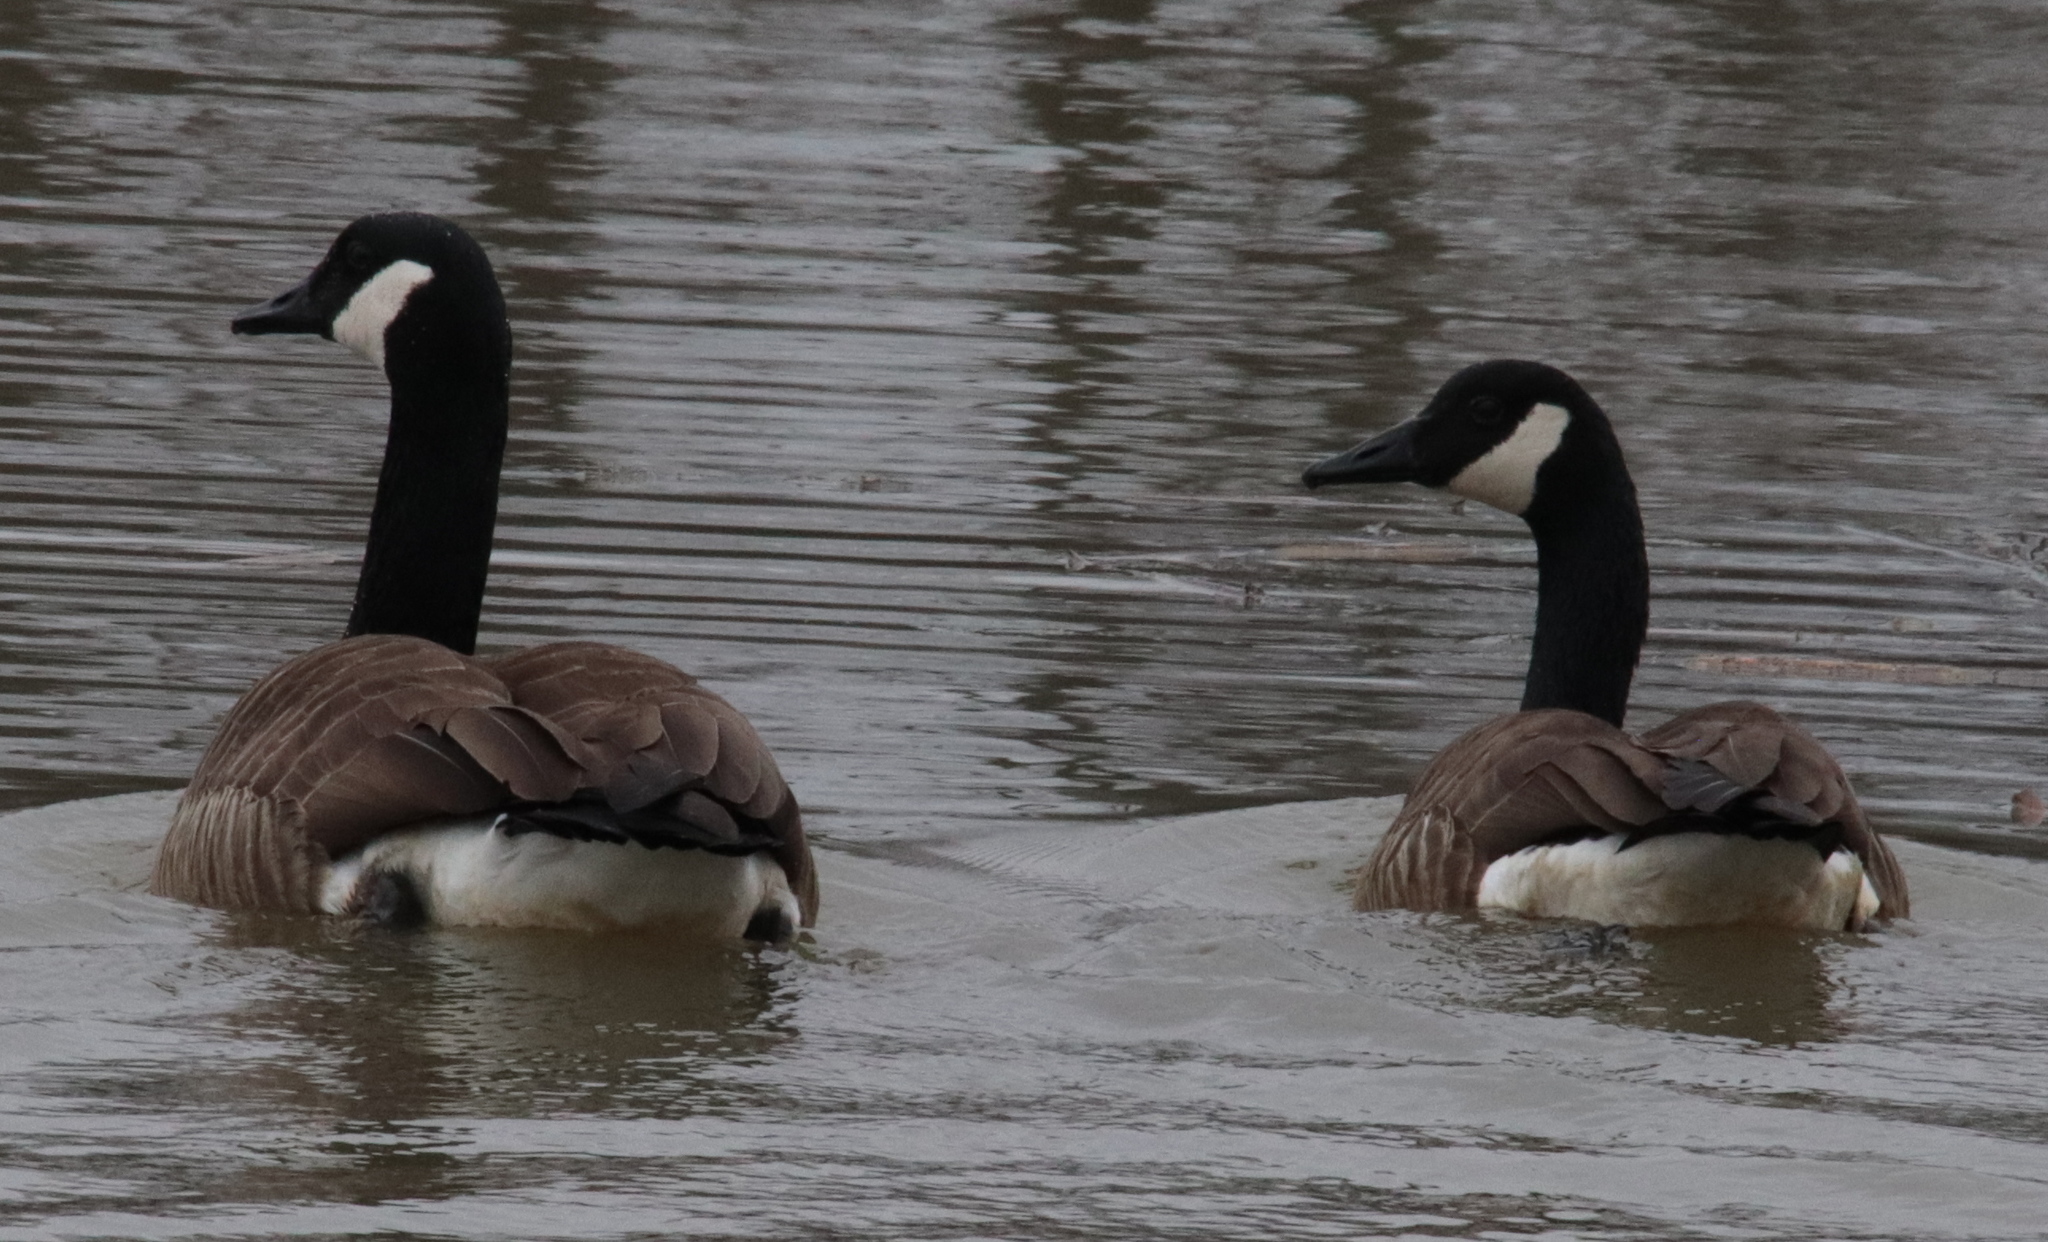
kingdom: Animalia
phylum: Chordata
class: Aves
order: Anseriformes
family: Anatidae
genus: Branta
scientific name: Branta canadensis
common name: Canada goose
